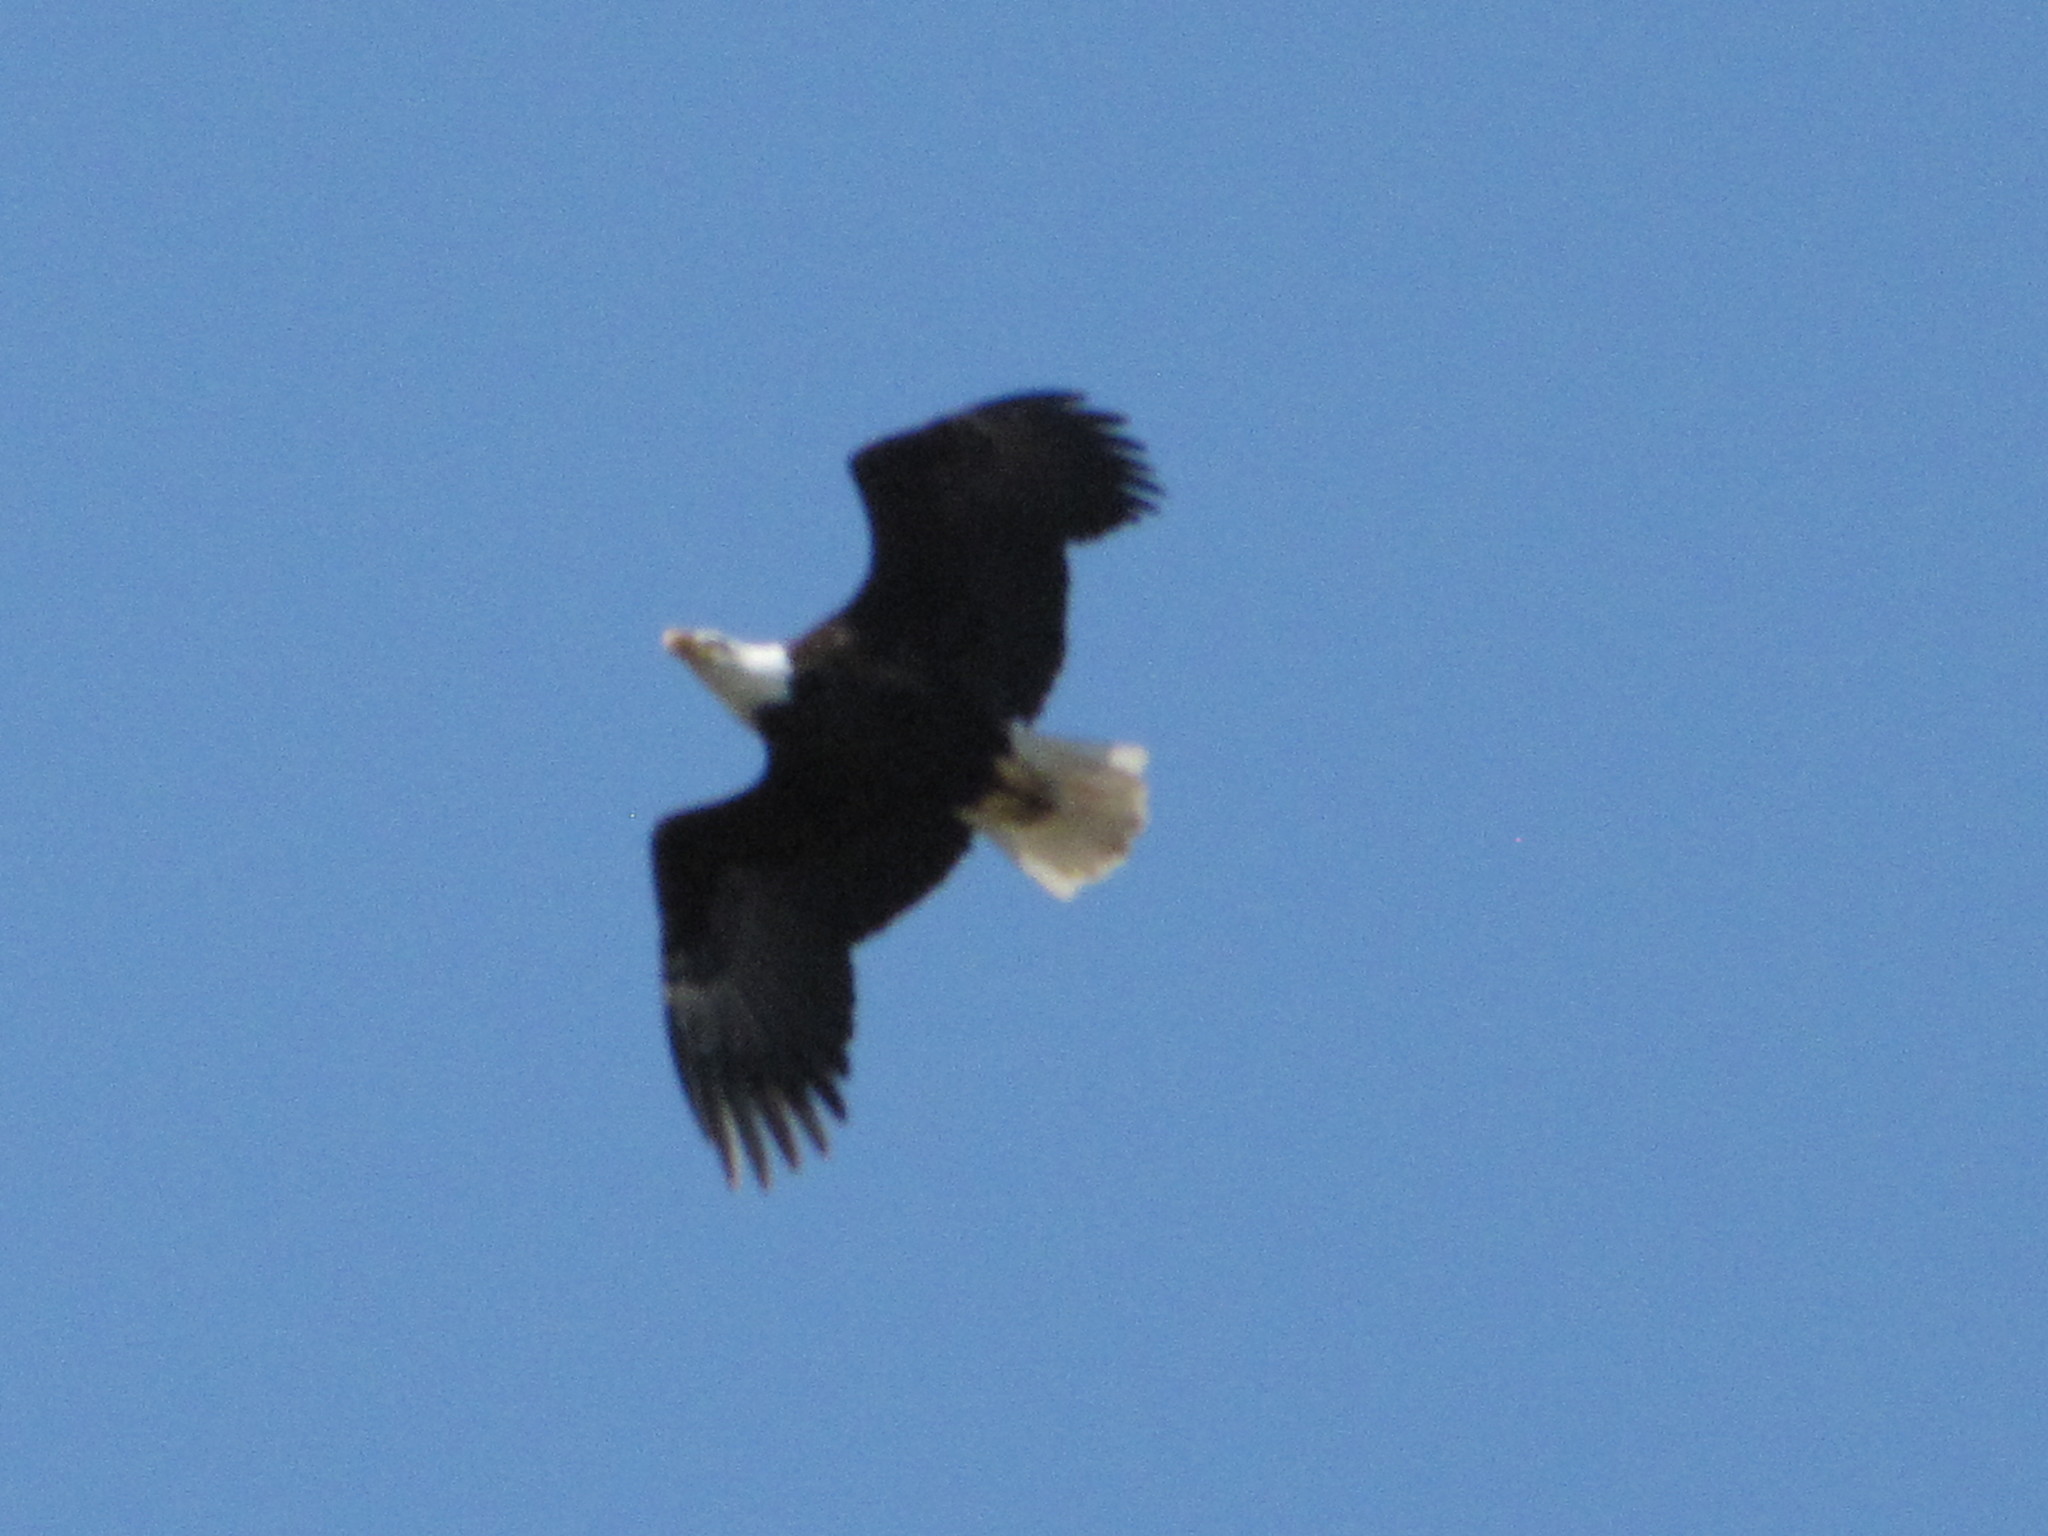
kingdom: Animalia
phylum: Chordata
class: Aves
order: Accipitriformes
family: Accipitridae
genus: Haliaeetus
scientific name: Haliaeetus leucocephalus
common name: Bald eagle
